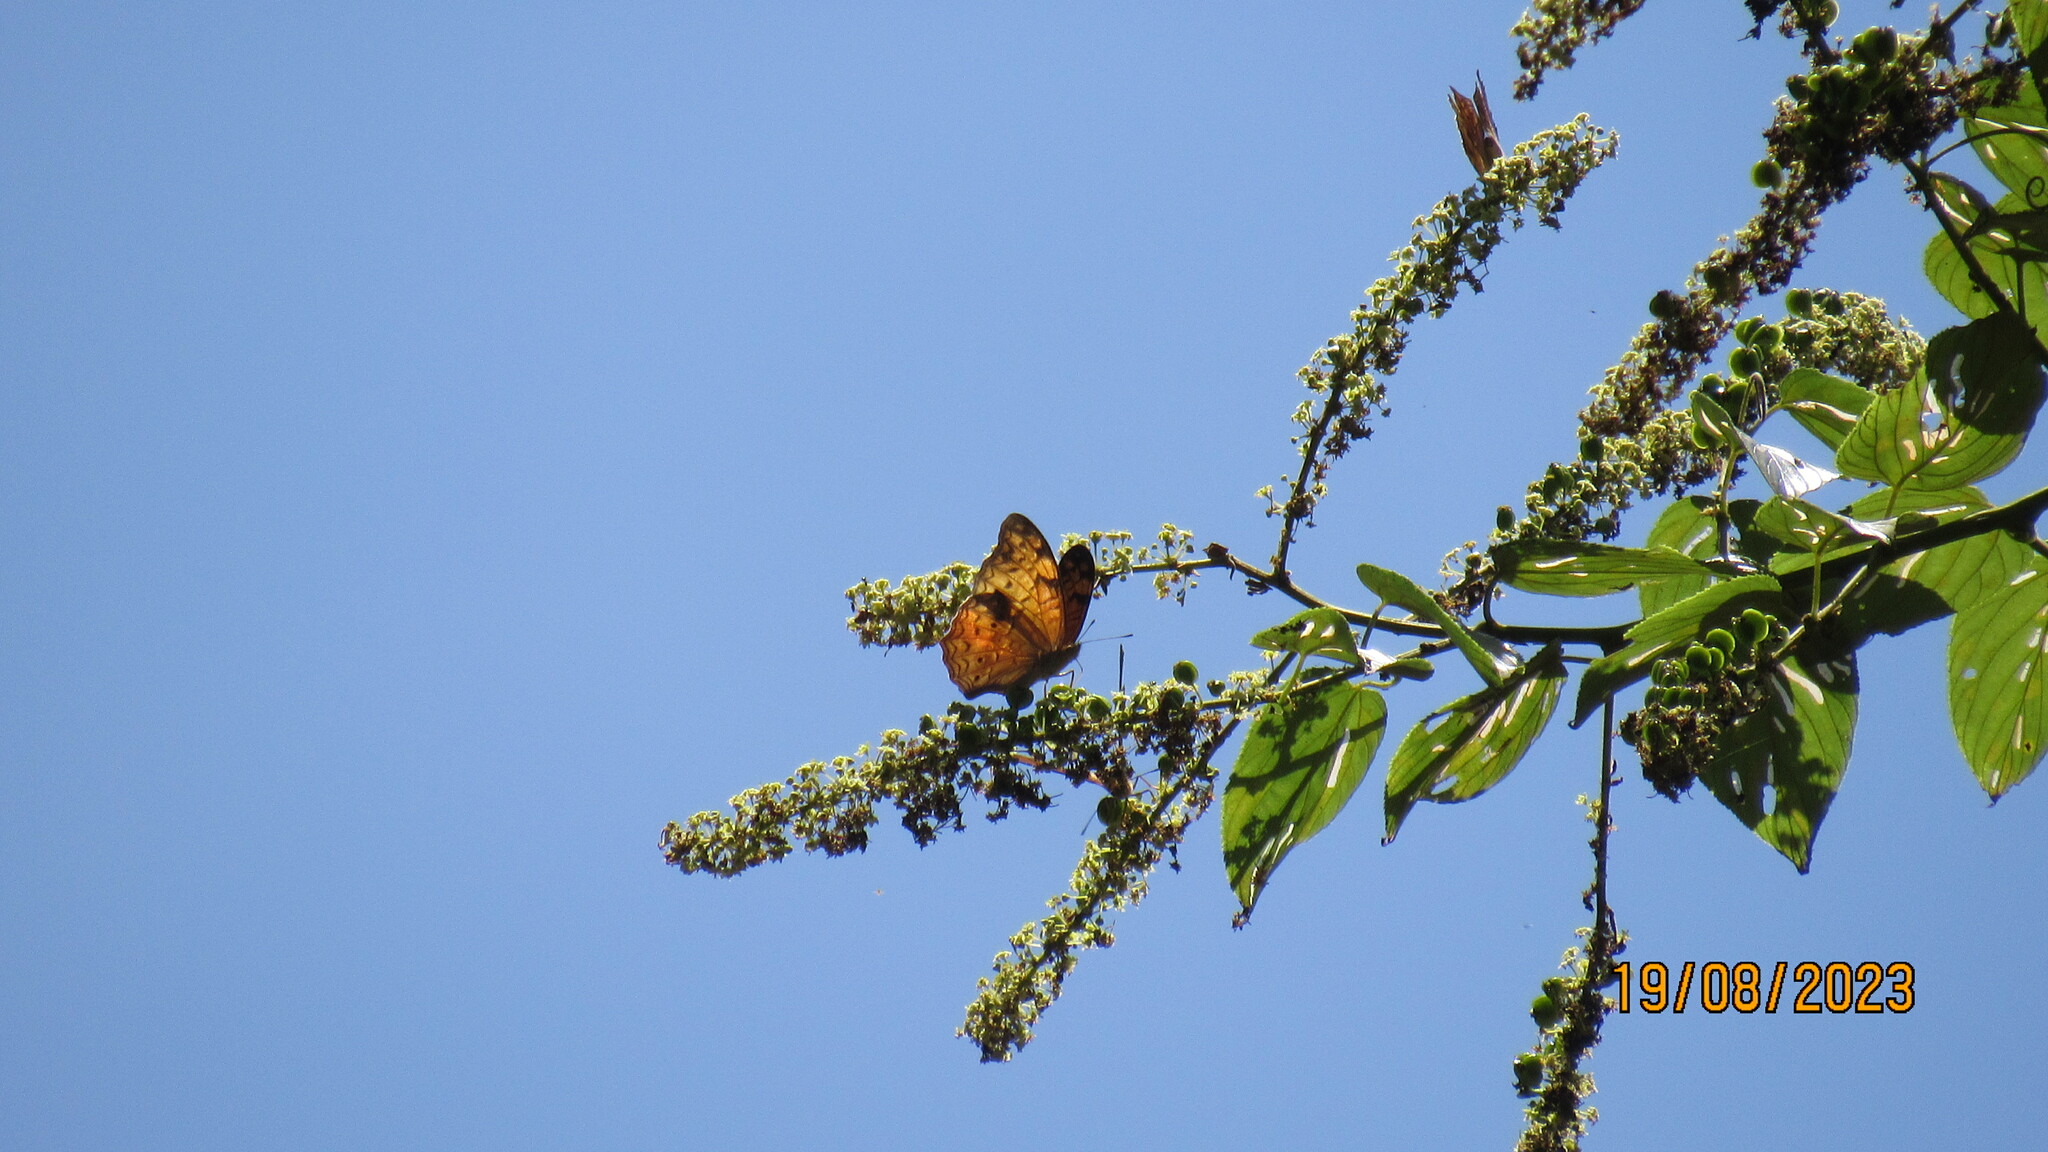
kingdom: Animalia
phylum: Arthropoda
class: Insecta
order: Lepidoptera
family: Nymphalidae
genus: Lachnoptera
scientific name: Lachnoptera ayresii
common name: Blotched leopard
